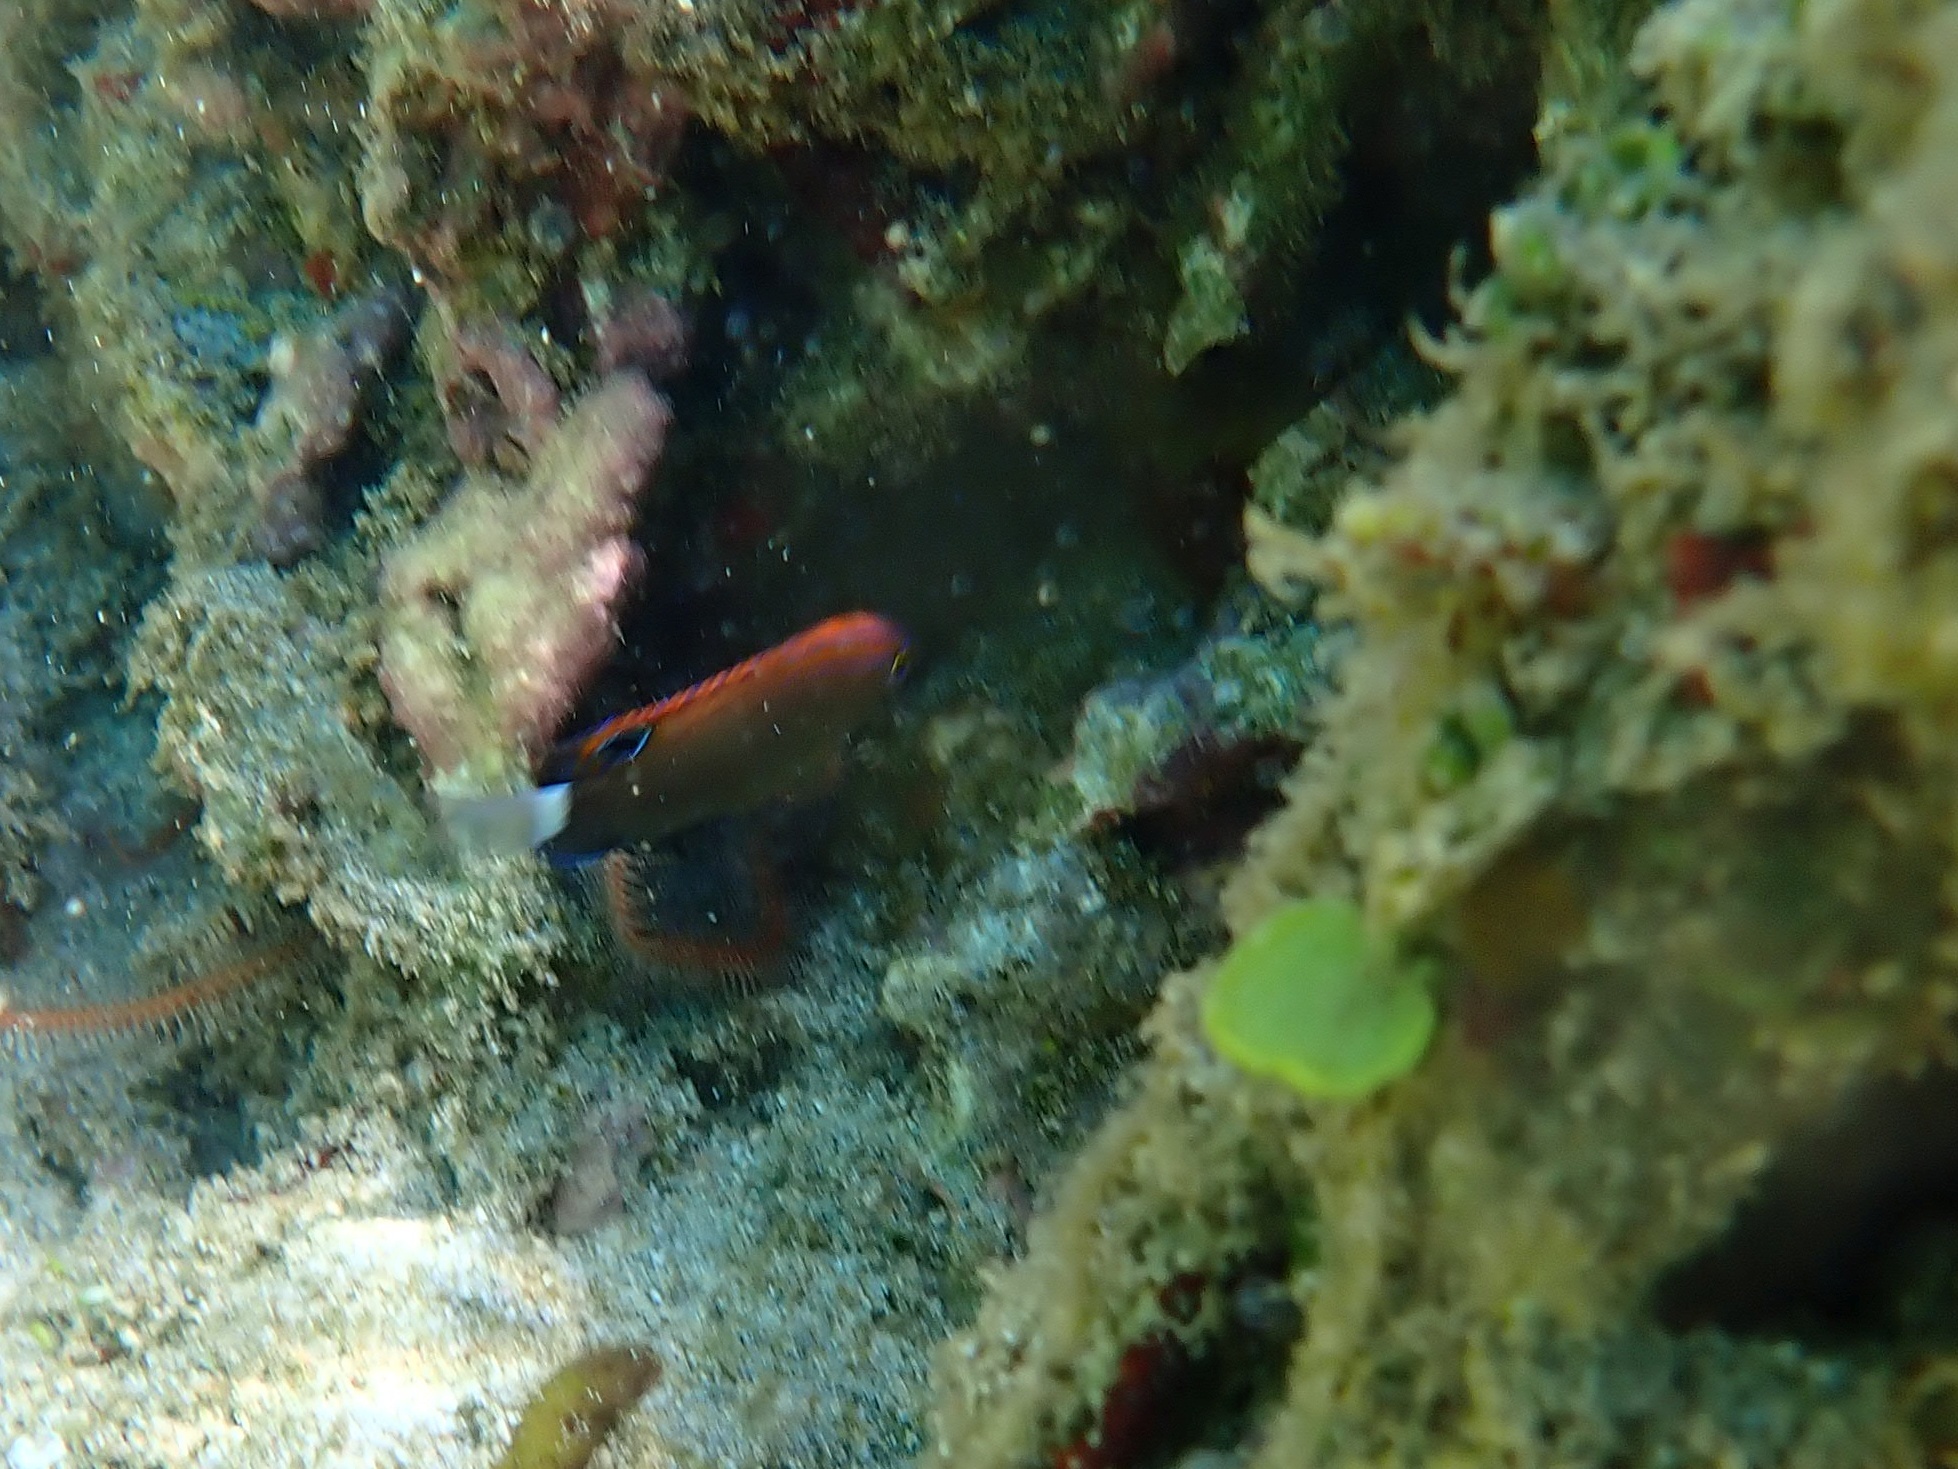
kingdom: Animalia
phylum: Chordata
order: Perciformes
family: Pomacentridae
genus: Pomacentrus
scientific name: Pomacentrus bankanensis
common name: Speckled damsel
